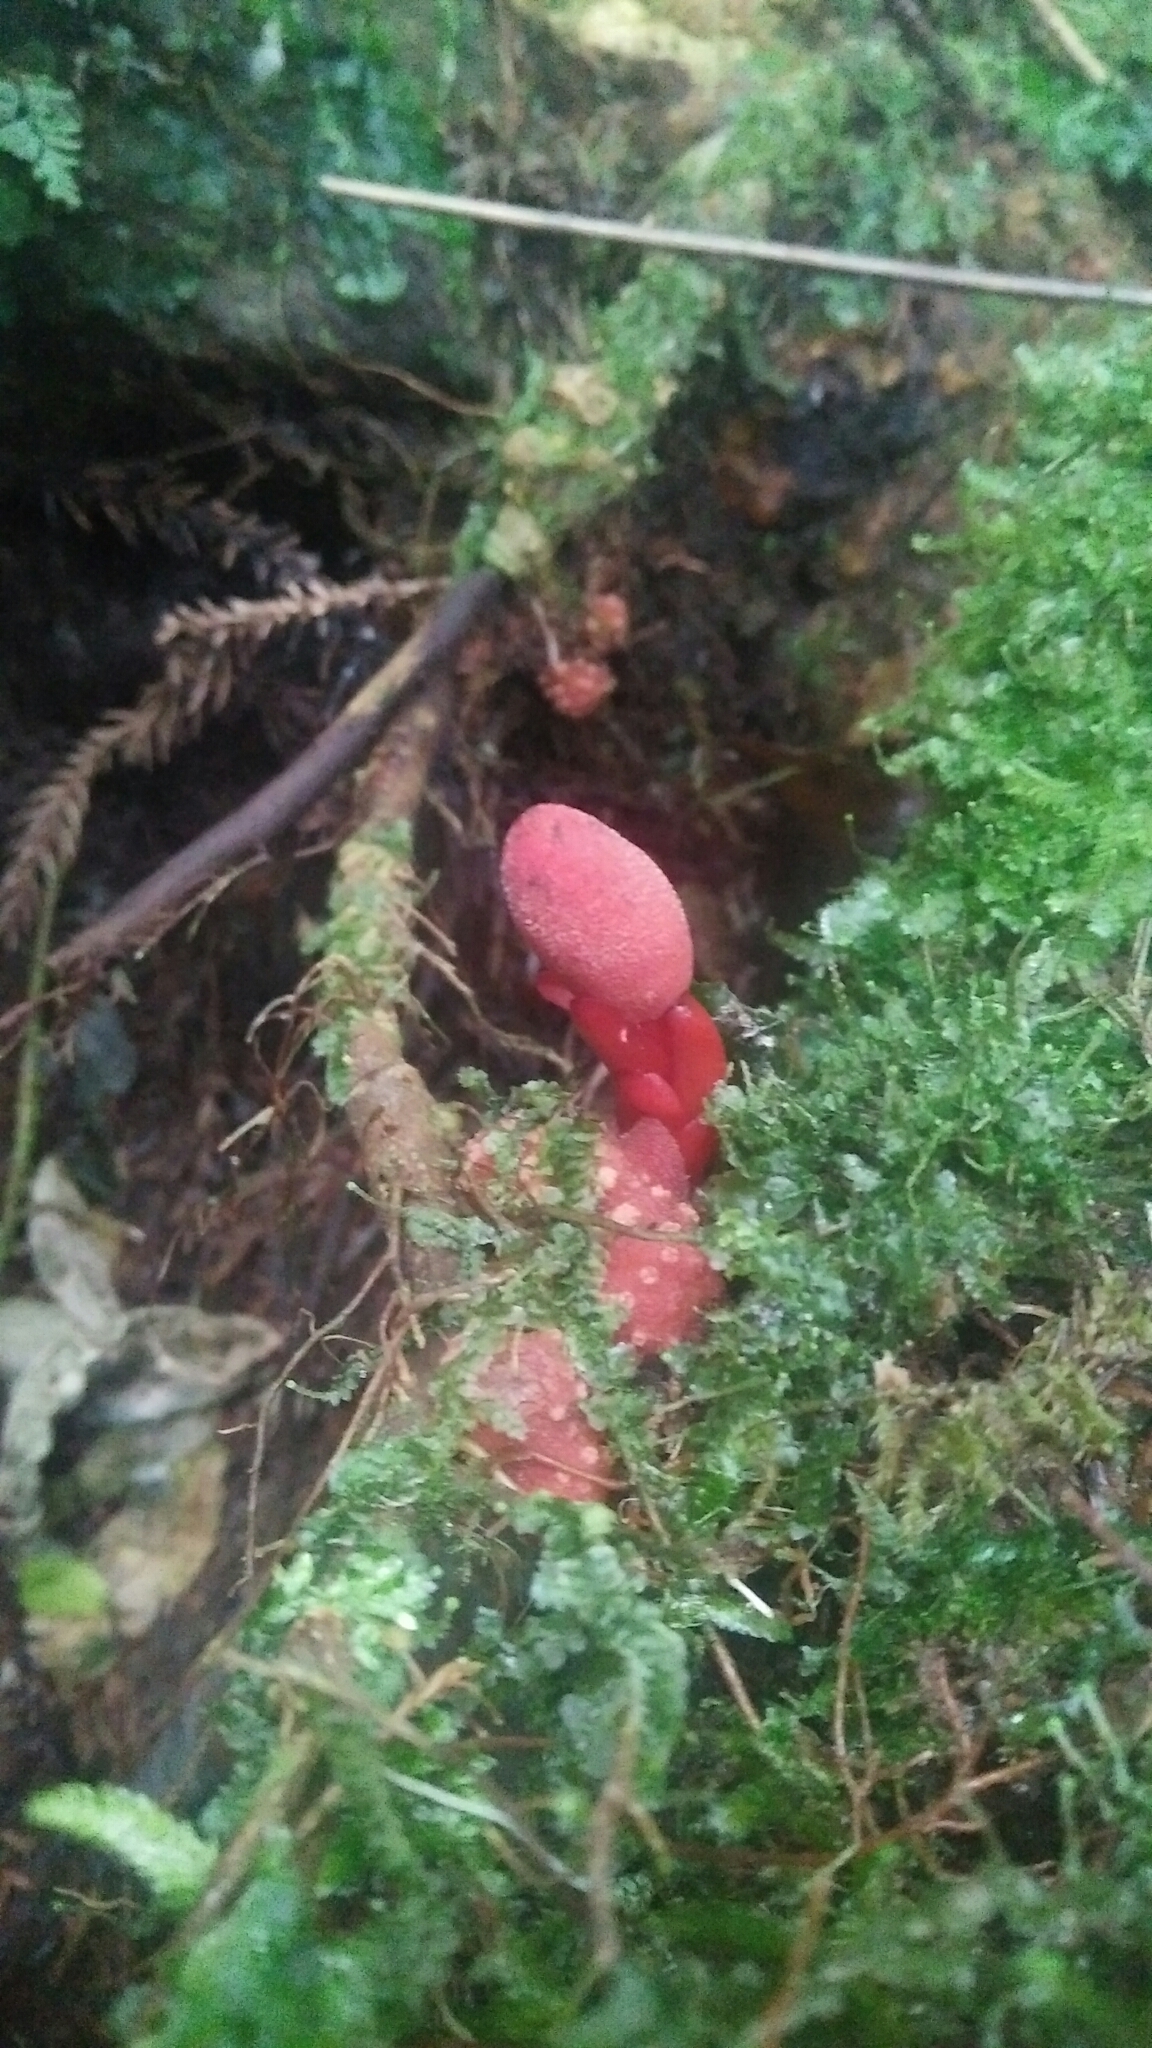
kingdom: Plantae
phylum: Tracheophyta
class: Magnoliopsida
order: Santalales
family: Balanophoraceae
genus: Balanophora
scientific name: Balanophora laxiflora
